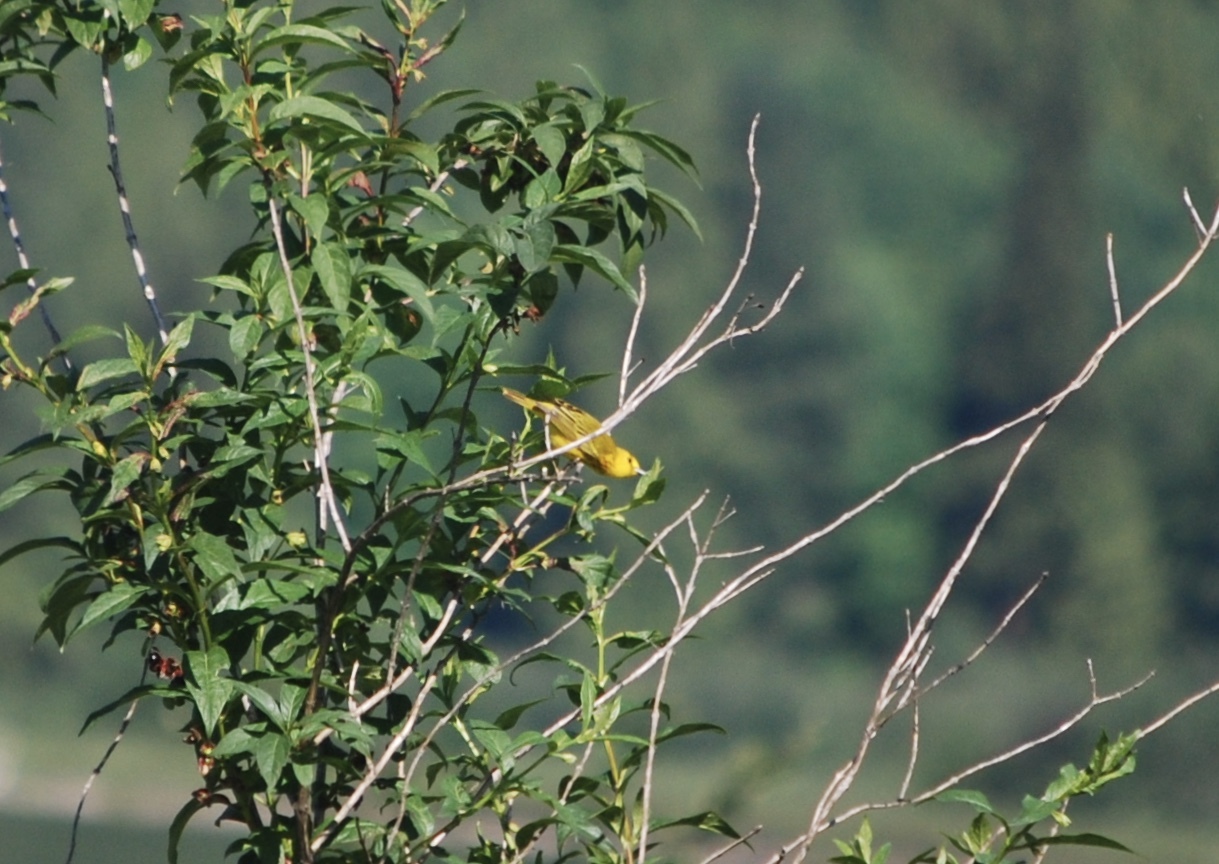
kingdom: Animalia
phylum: Chordata
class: Aves
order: Passeriformes
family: Parulidae
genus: Setophaga
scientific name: Setophaga petechia
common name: Yellow warbler
